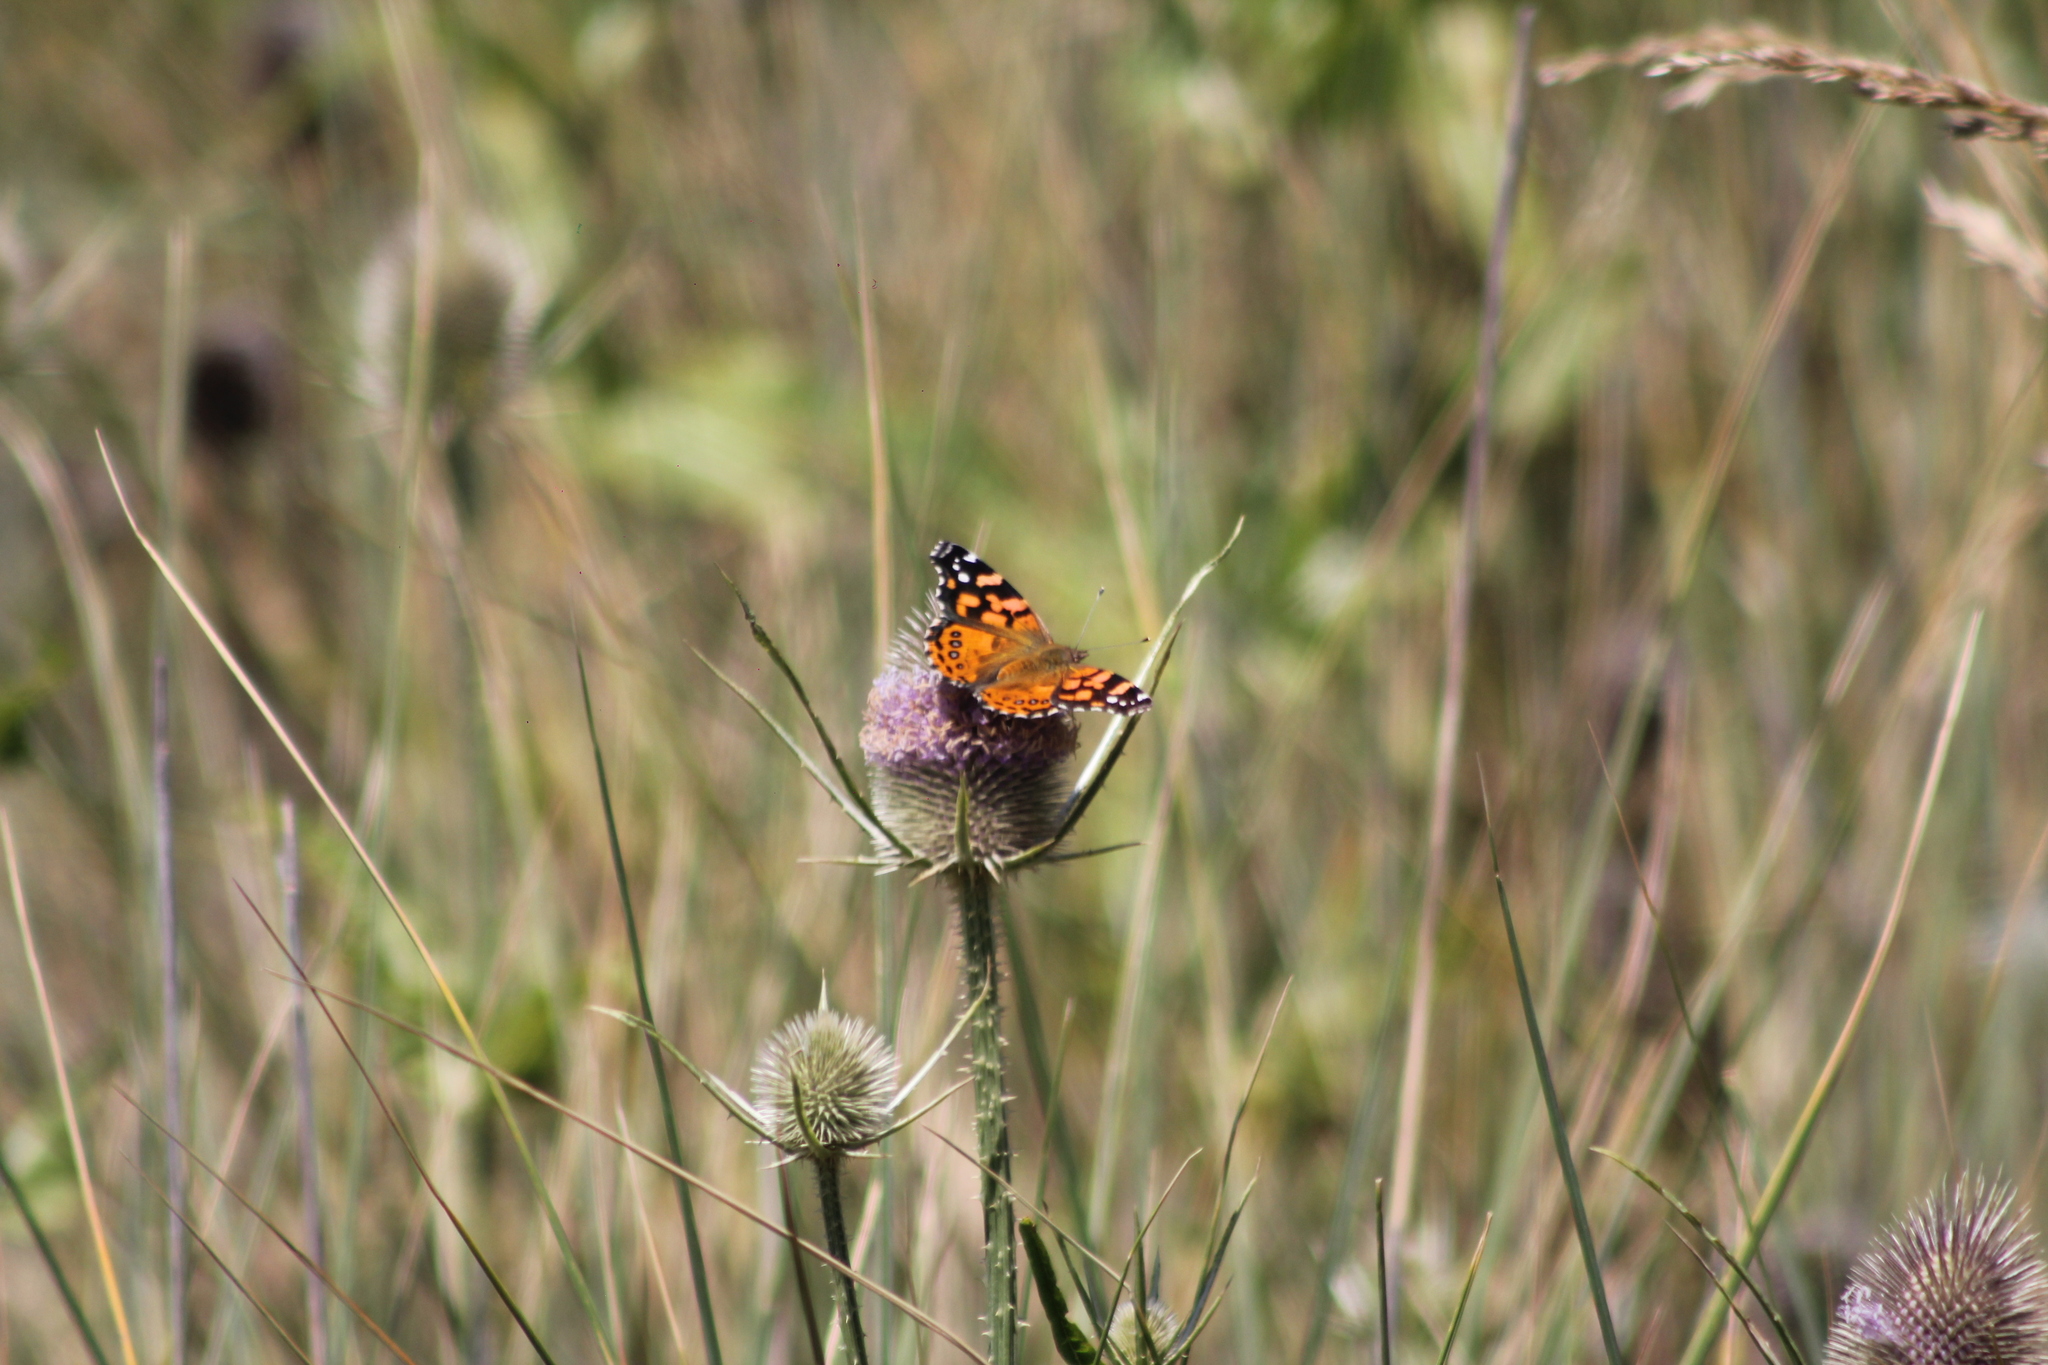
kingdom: Animalia
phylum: Arthropoda
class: Insecta
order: Lepidoptera
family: Nymphalidae
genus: Vanessa
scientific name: Vanessa carye
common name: Subtropical lady
